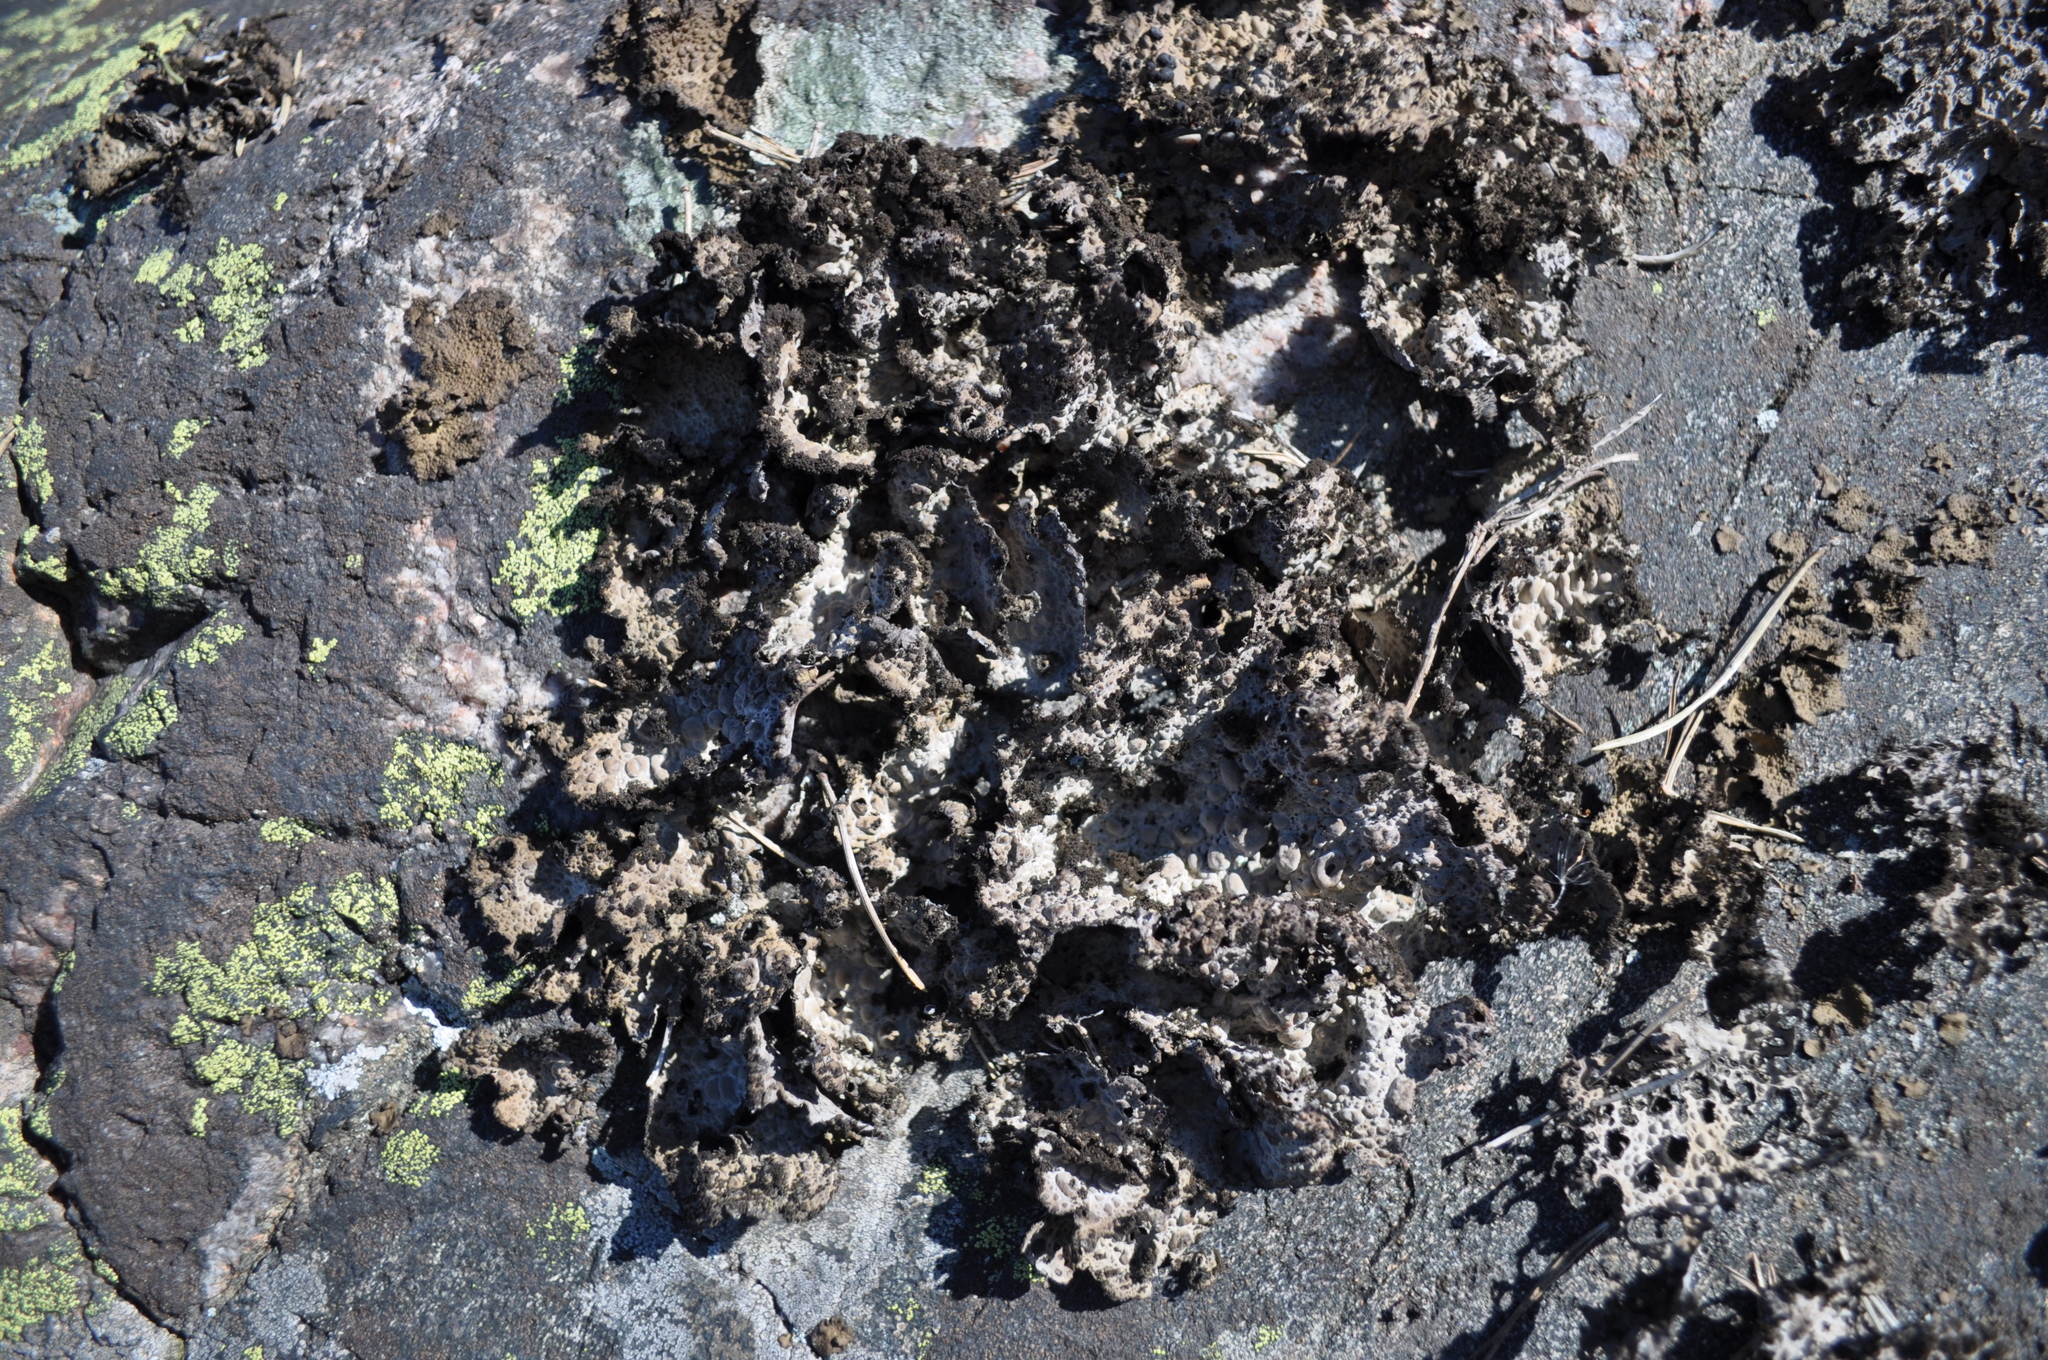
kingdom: Fungi
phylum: Ascomycota
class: Lecanoromycetes
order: Umbilicariales
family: Umbilicariaceae
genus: Lasallia
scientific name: Lasallia pustulata
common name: Blistered toadskin lichen
